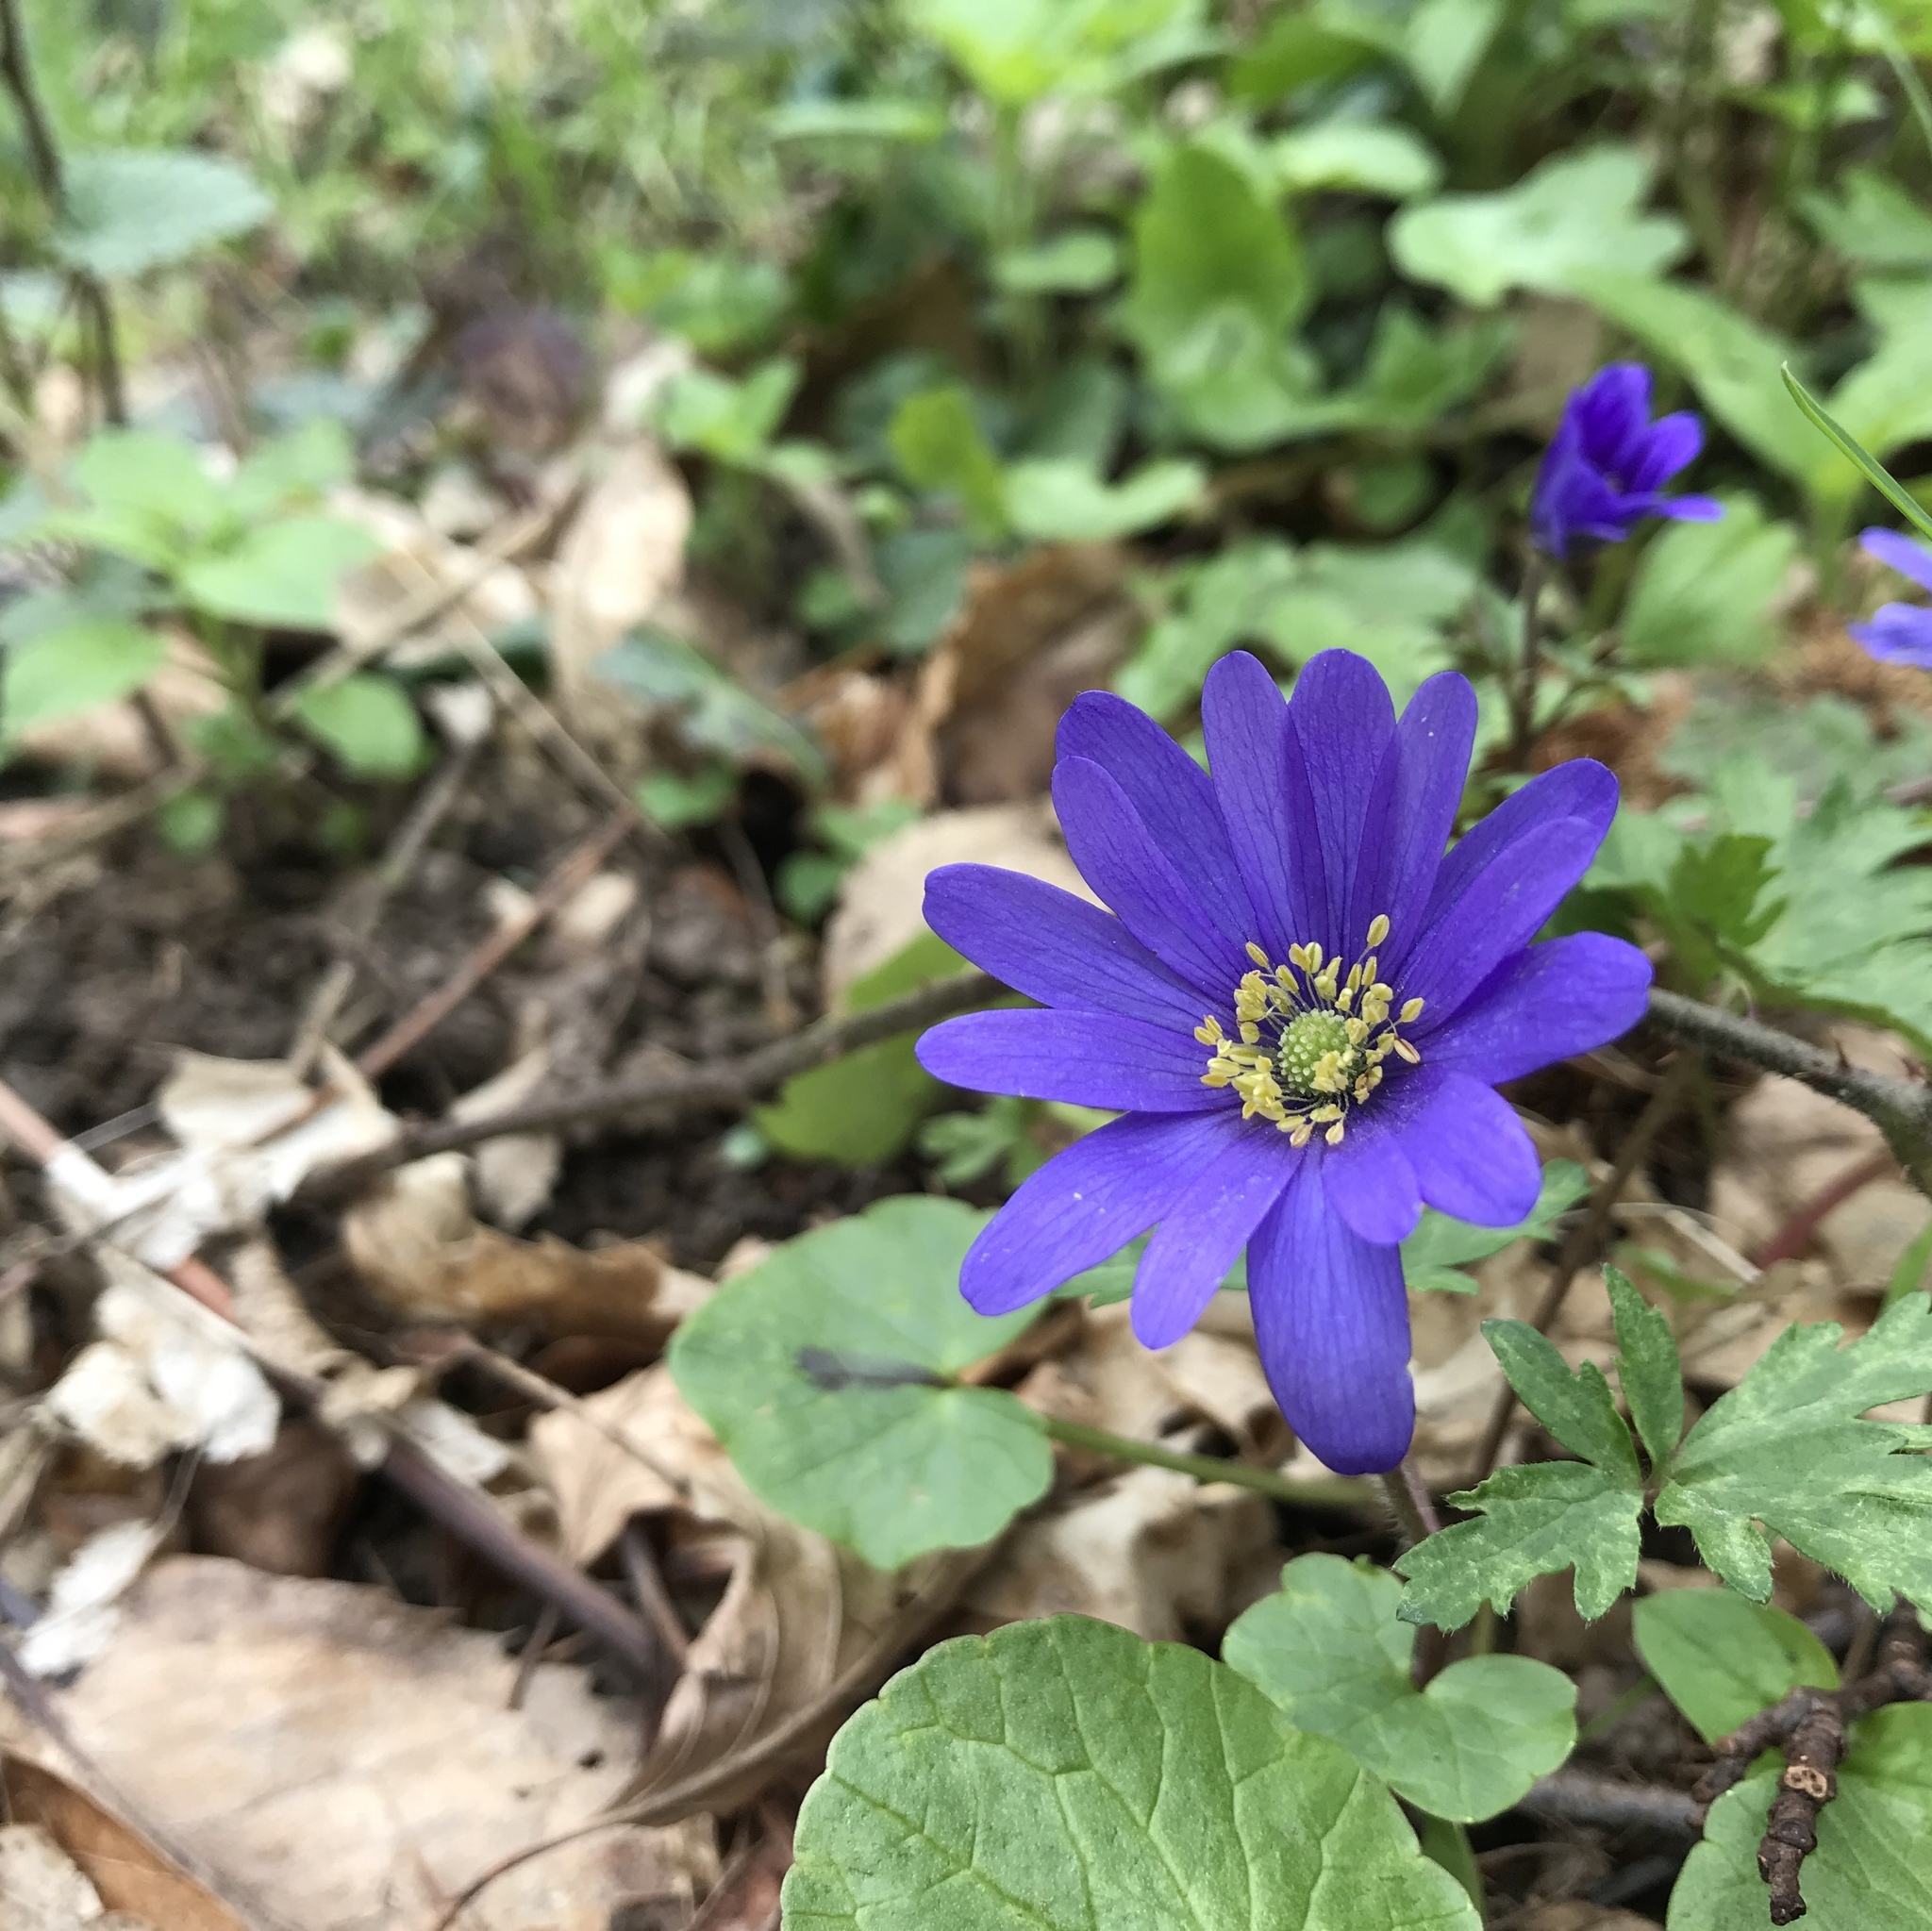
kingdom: Plantae
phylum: Tracheophyta
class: Magnoliopsida
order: Ranunculales
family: Ranunculaceae
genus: Anemone
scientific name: Anemone blanda
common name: Balkan anemone
